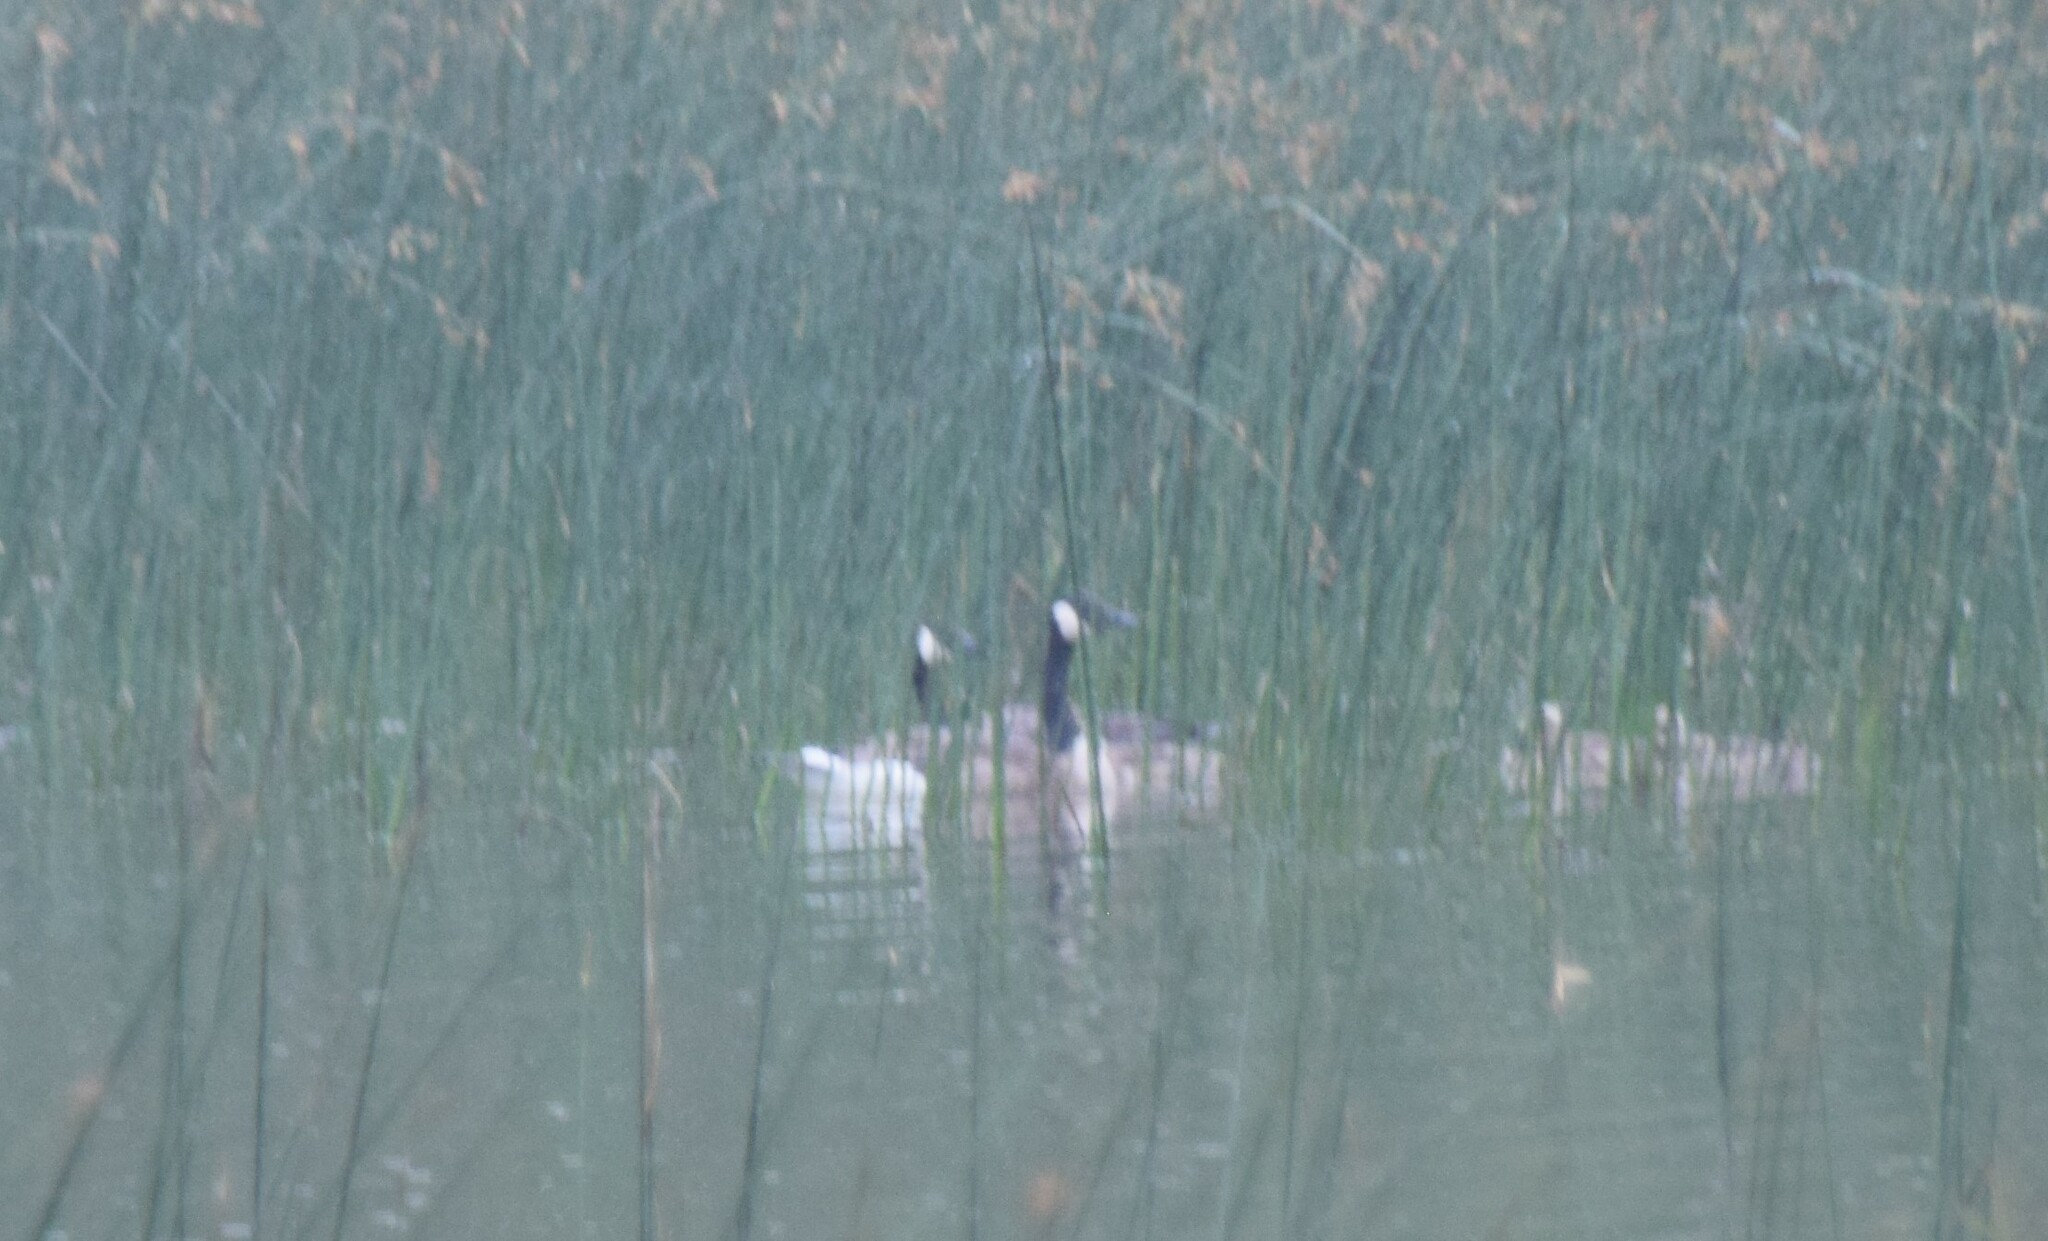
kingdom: Animalia
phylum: Chordata
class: Aves
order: Anseriformes
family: Anatidae
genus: Branta
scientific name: Branta canadensis
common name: Canada goose
